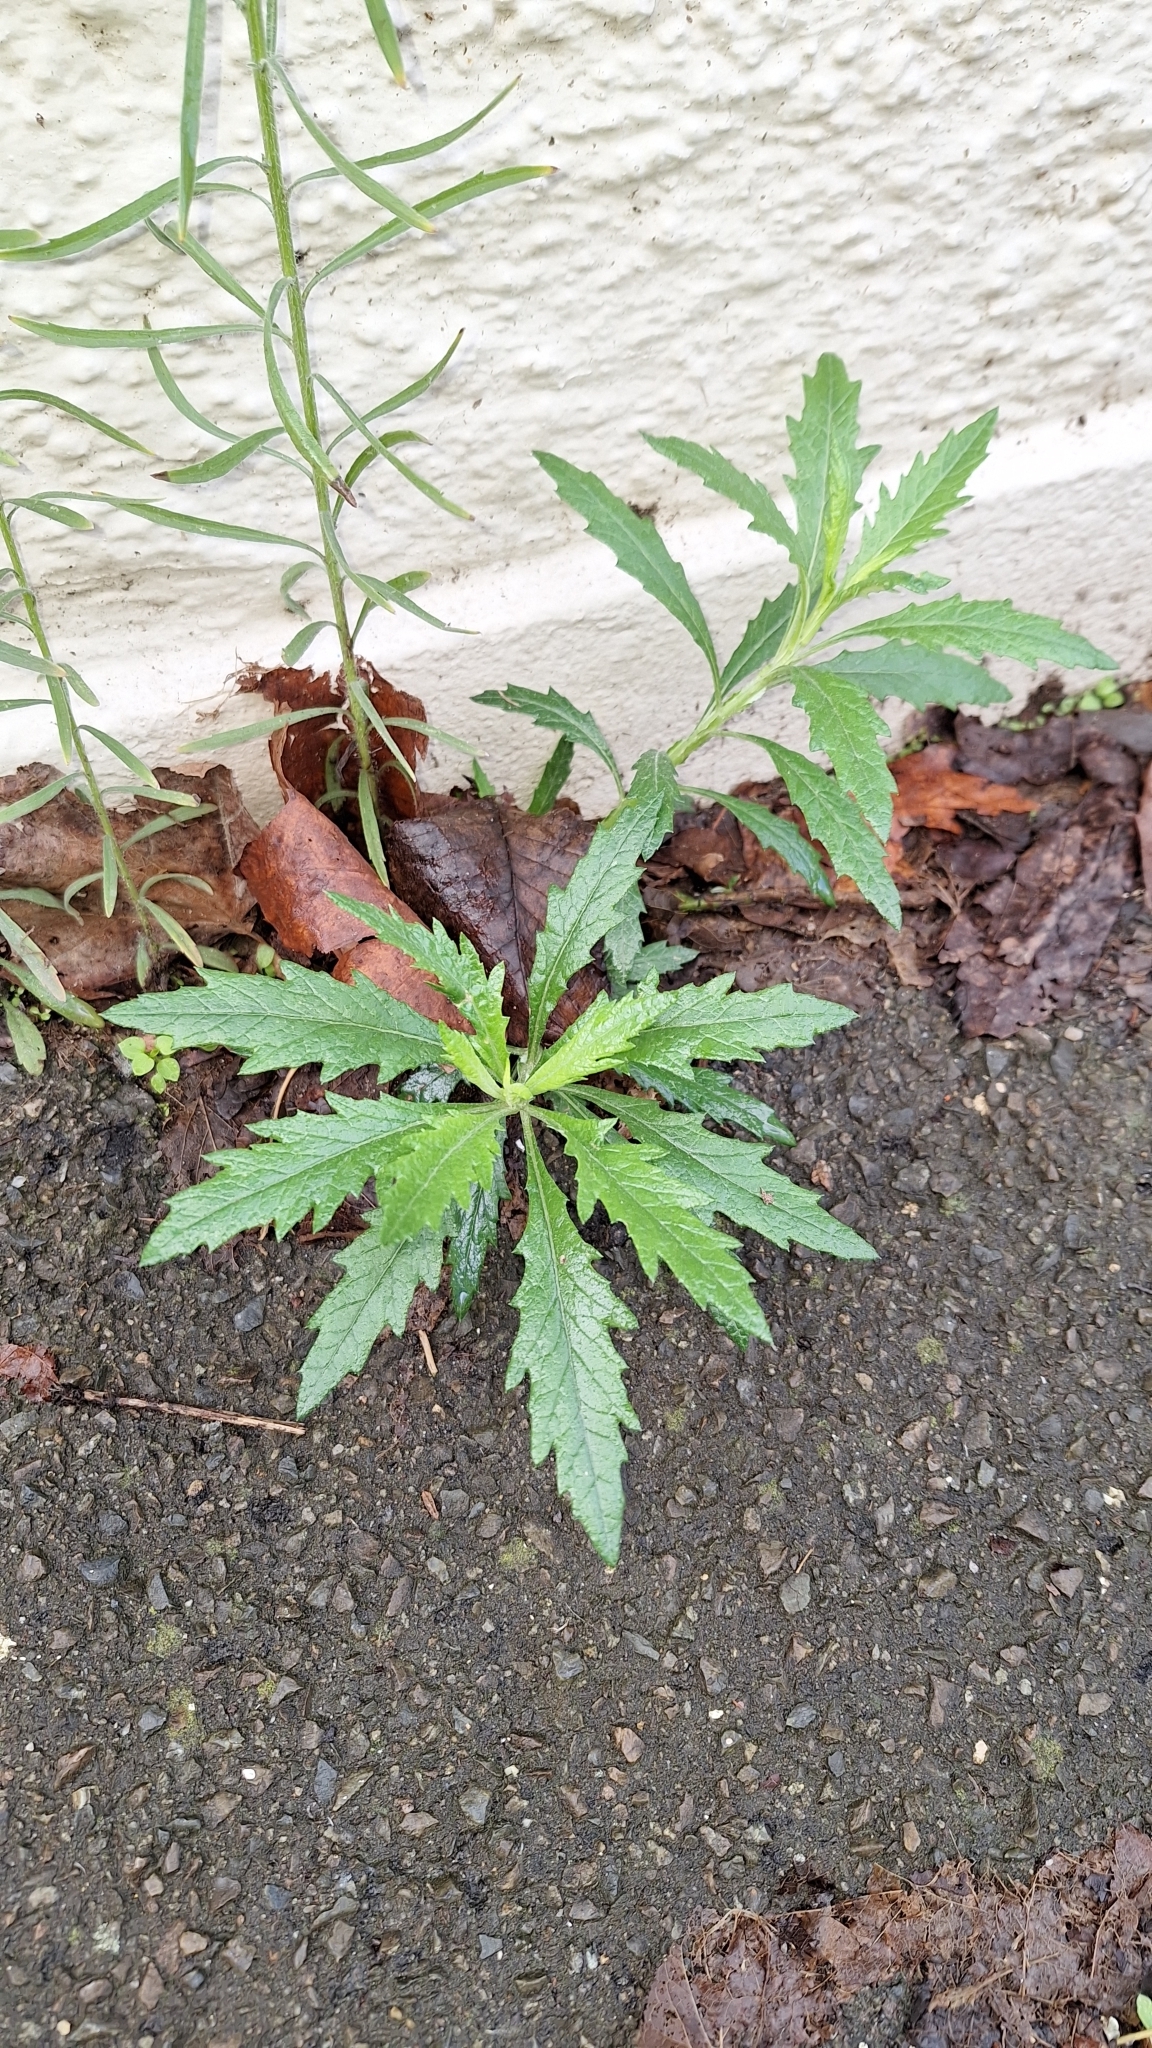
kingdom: Plantae
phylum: Tracheophyta
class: Magnoliopsida
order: Asterales
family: Asteraceae
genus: Senecio
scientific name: Senecio pterophorus
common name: Shoddy ragwort
